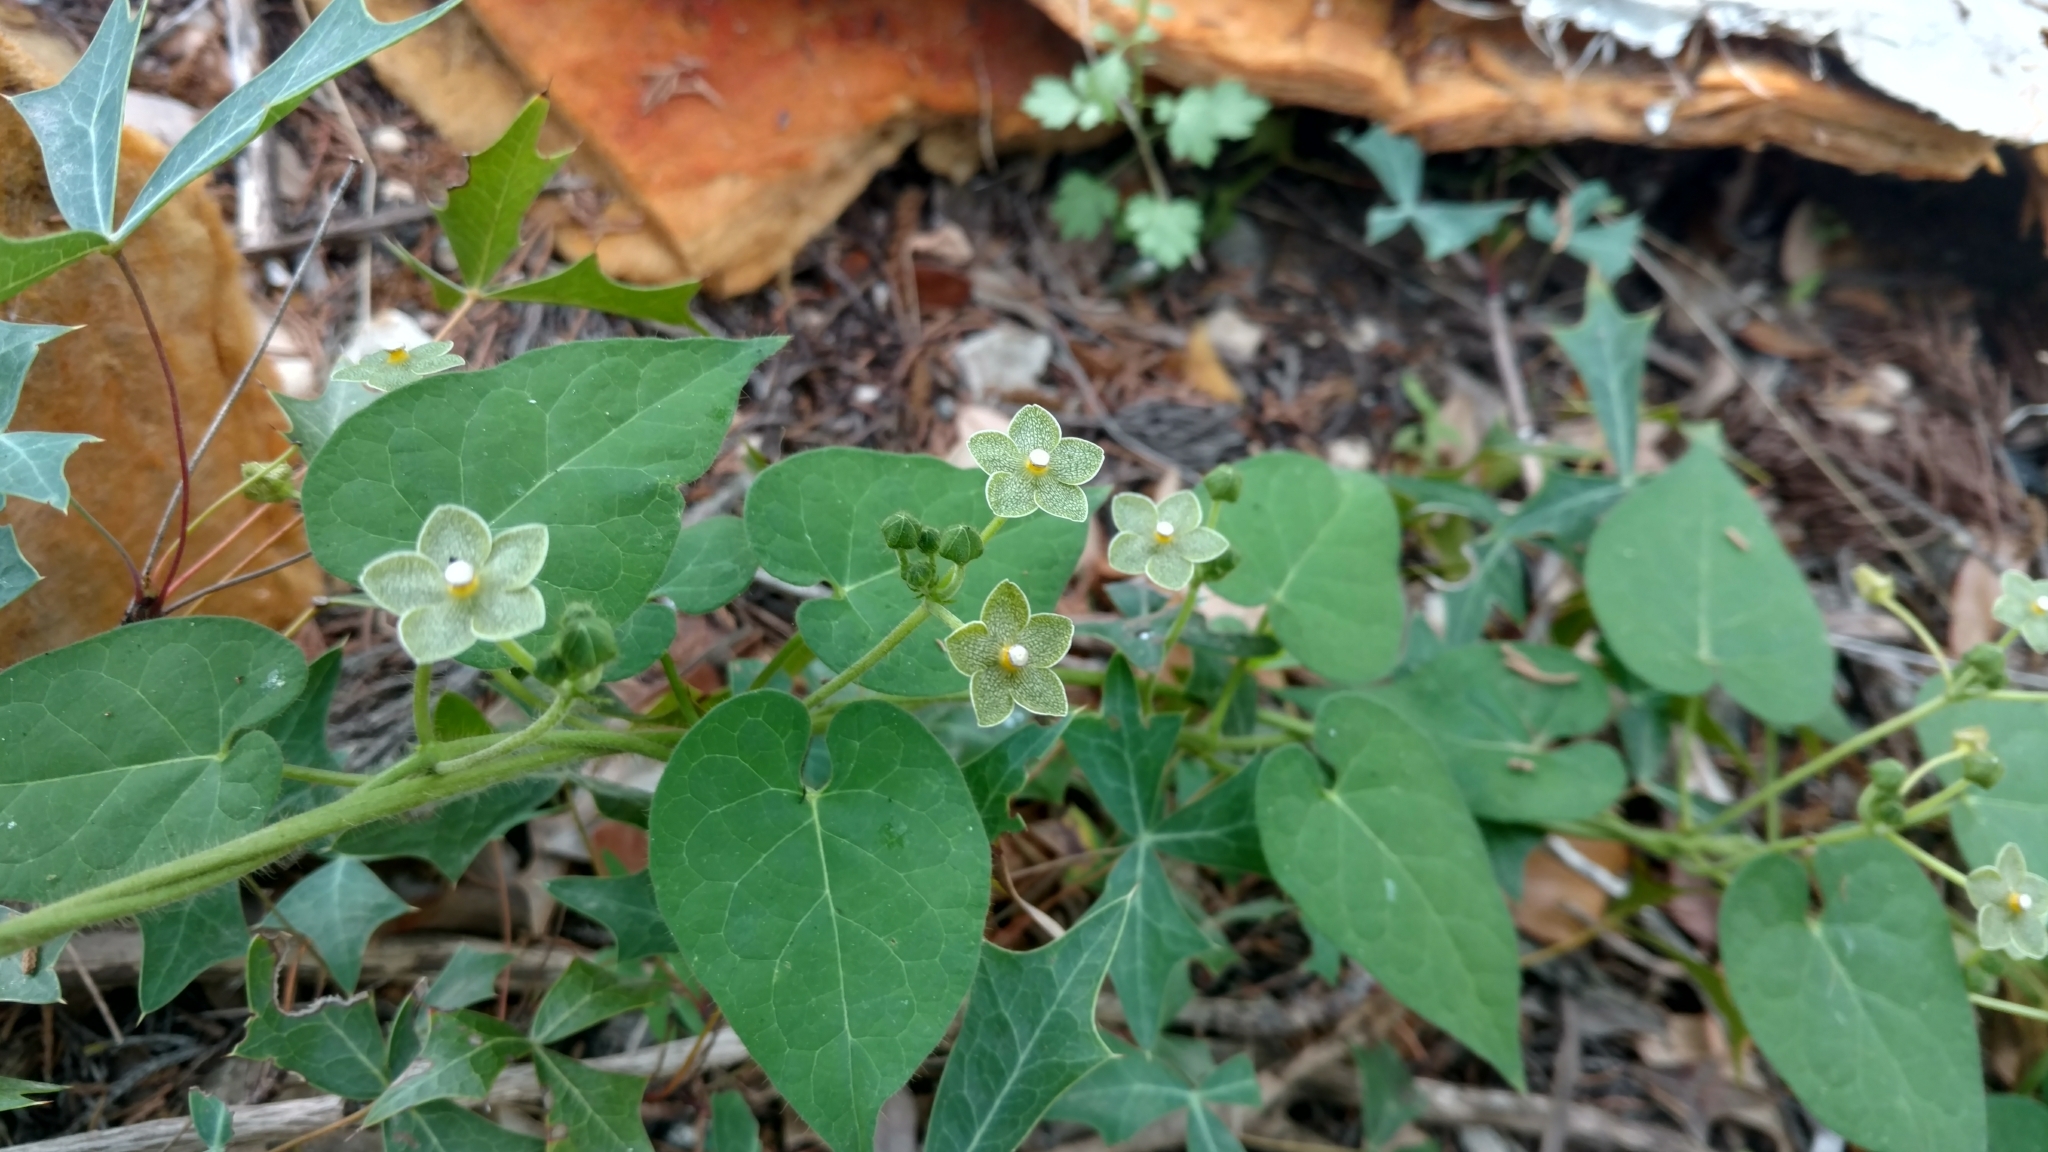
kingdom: Plantae
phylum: Tracheophyta
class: Magnoliopsida
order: Gentianales
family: Apocynaceae
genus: Dictyanthus
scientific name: Dictyanthus reticulatus
